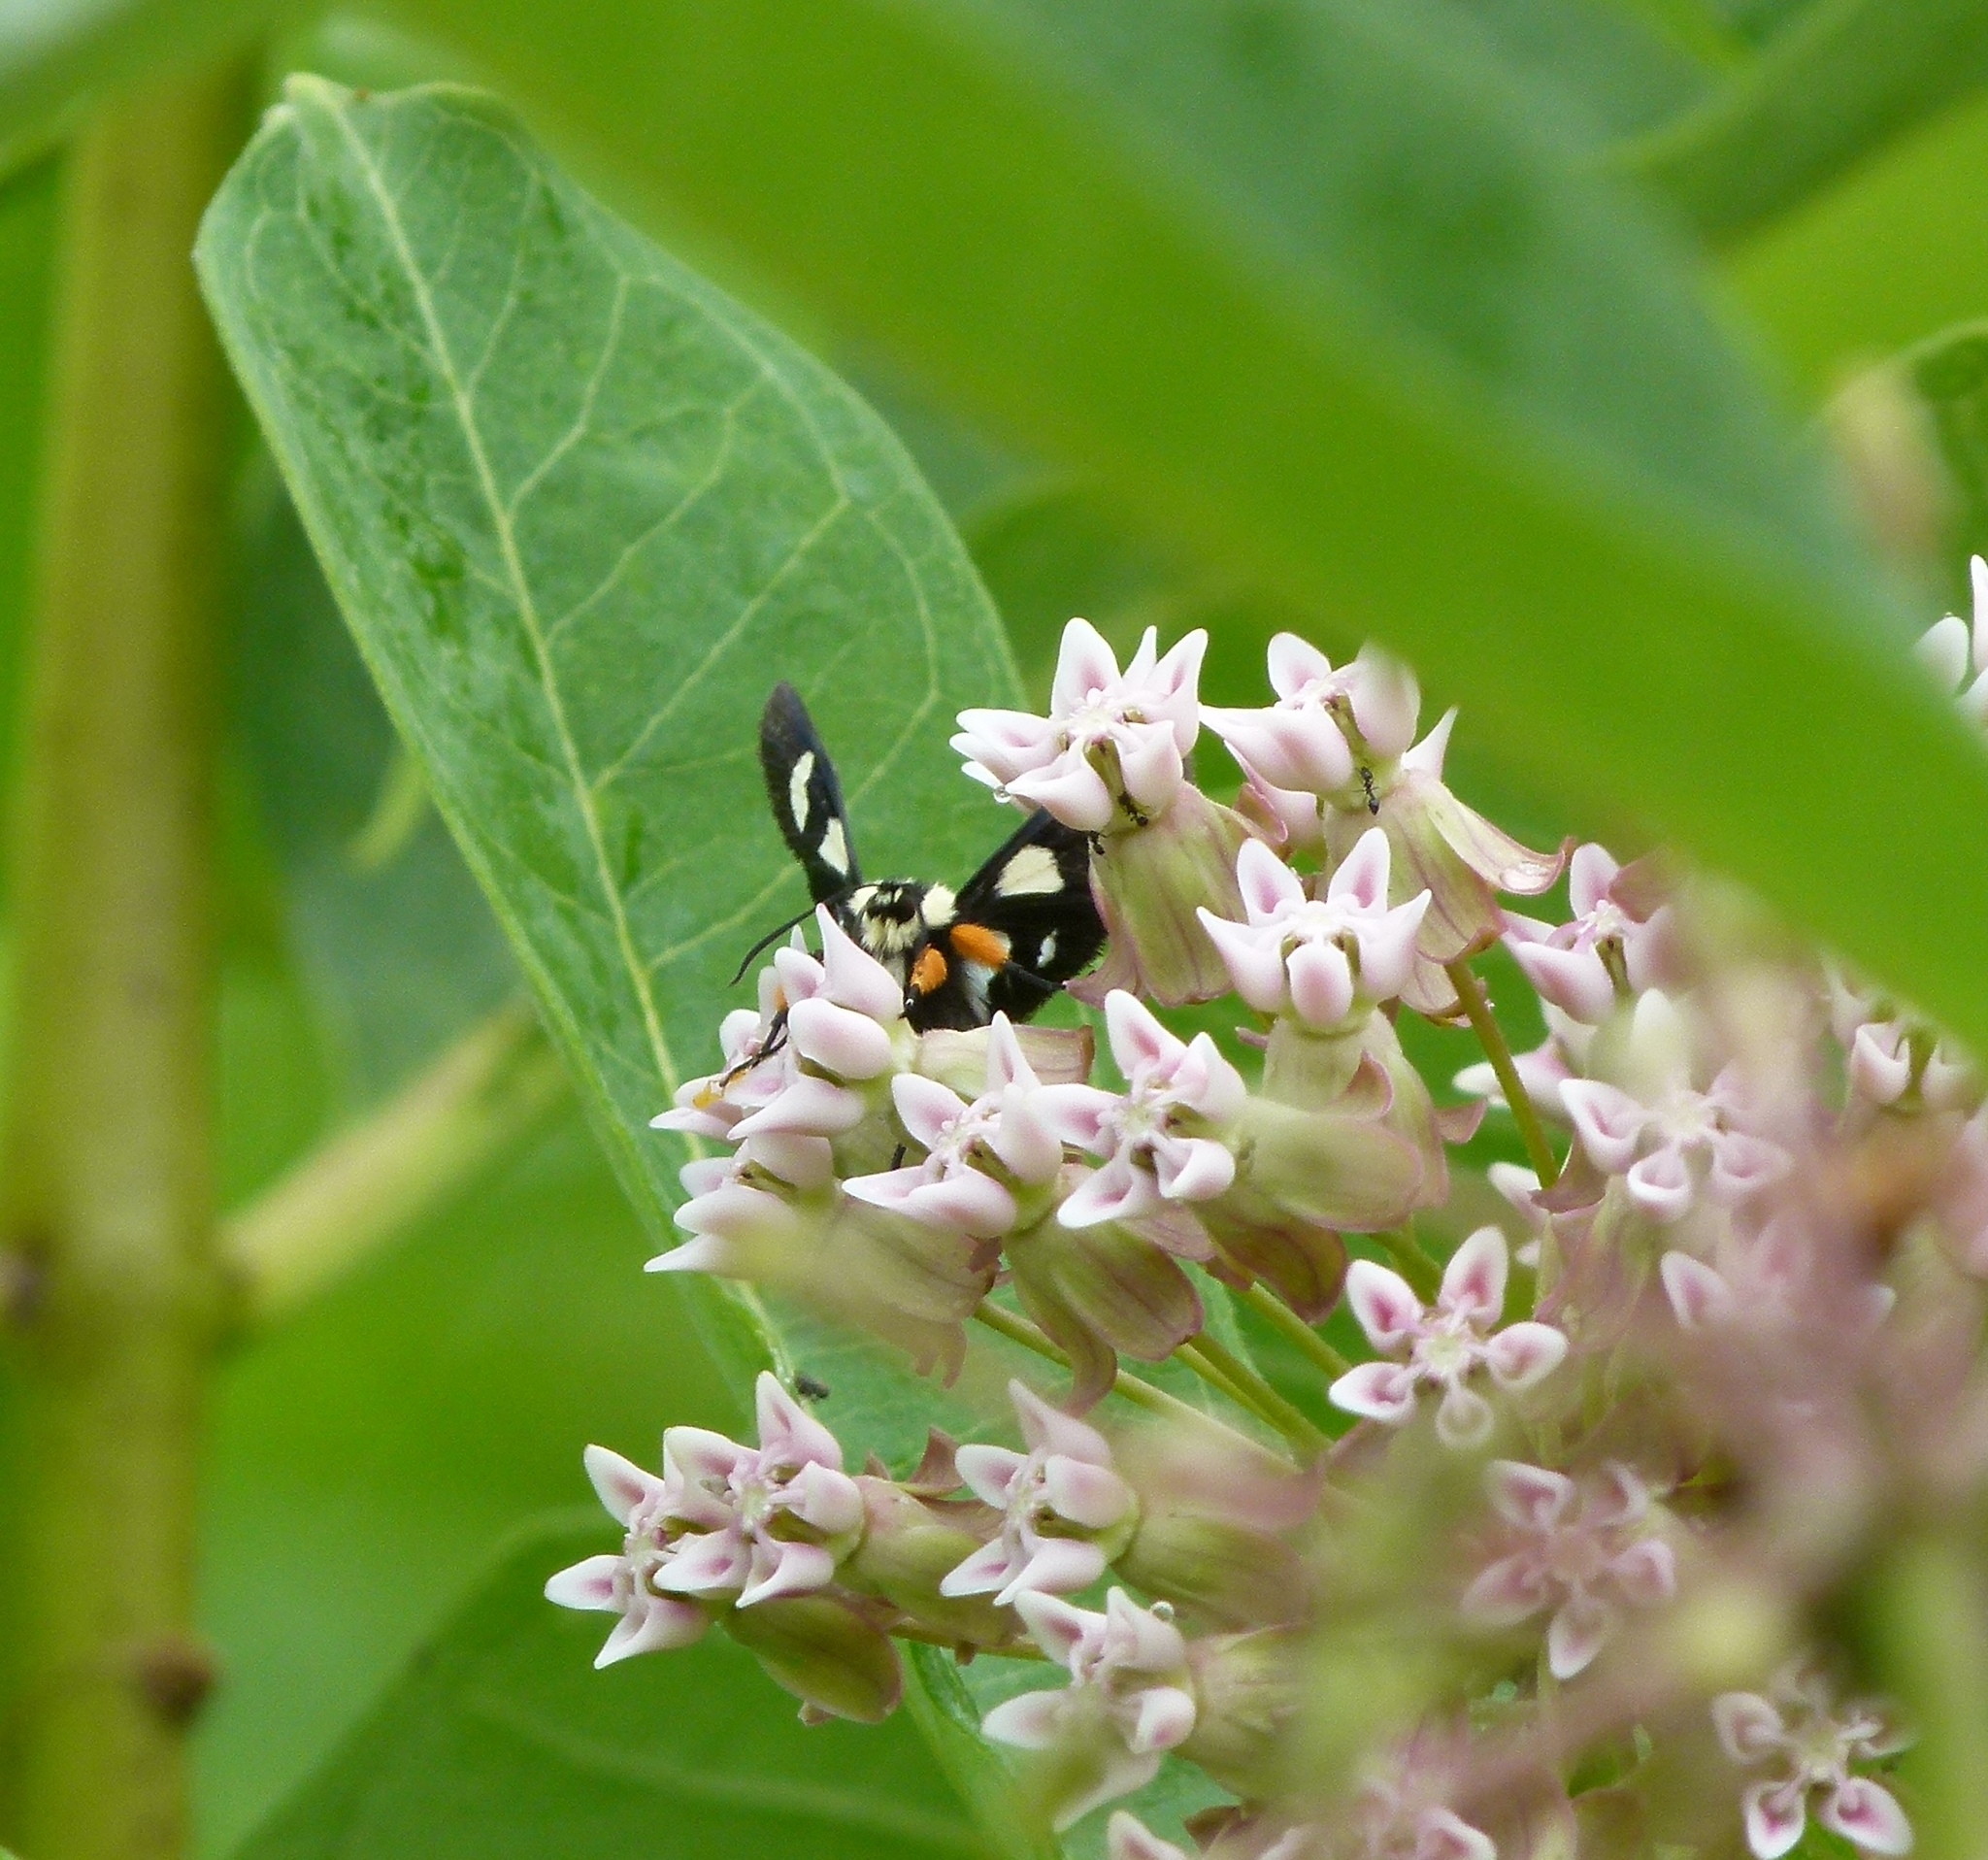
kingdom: Animalia
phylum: Arthropoda
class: Insecta
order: Lepidoptera
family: Noctuidae
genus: Alypia
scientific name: Alypia octomaculata
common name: Eight-spotted forester
